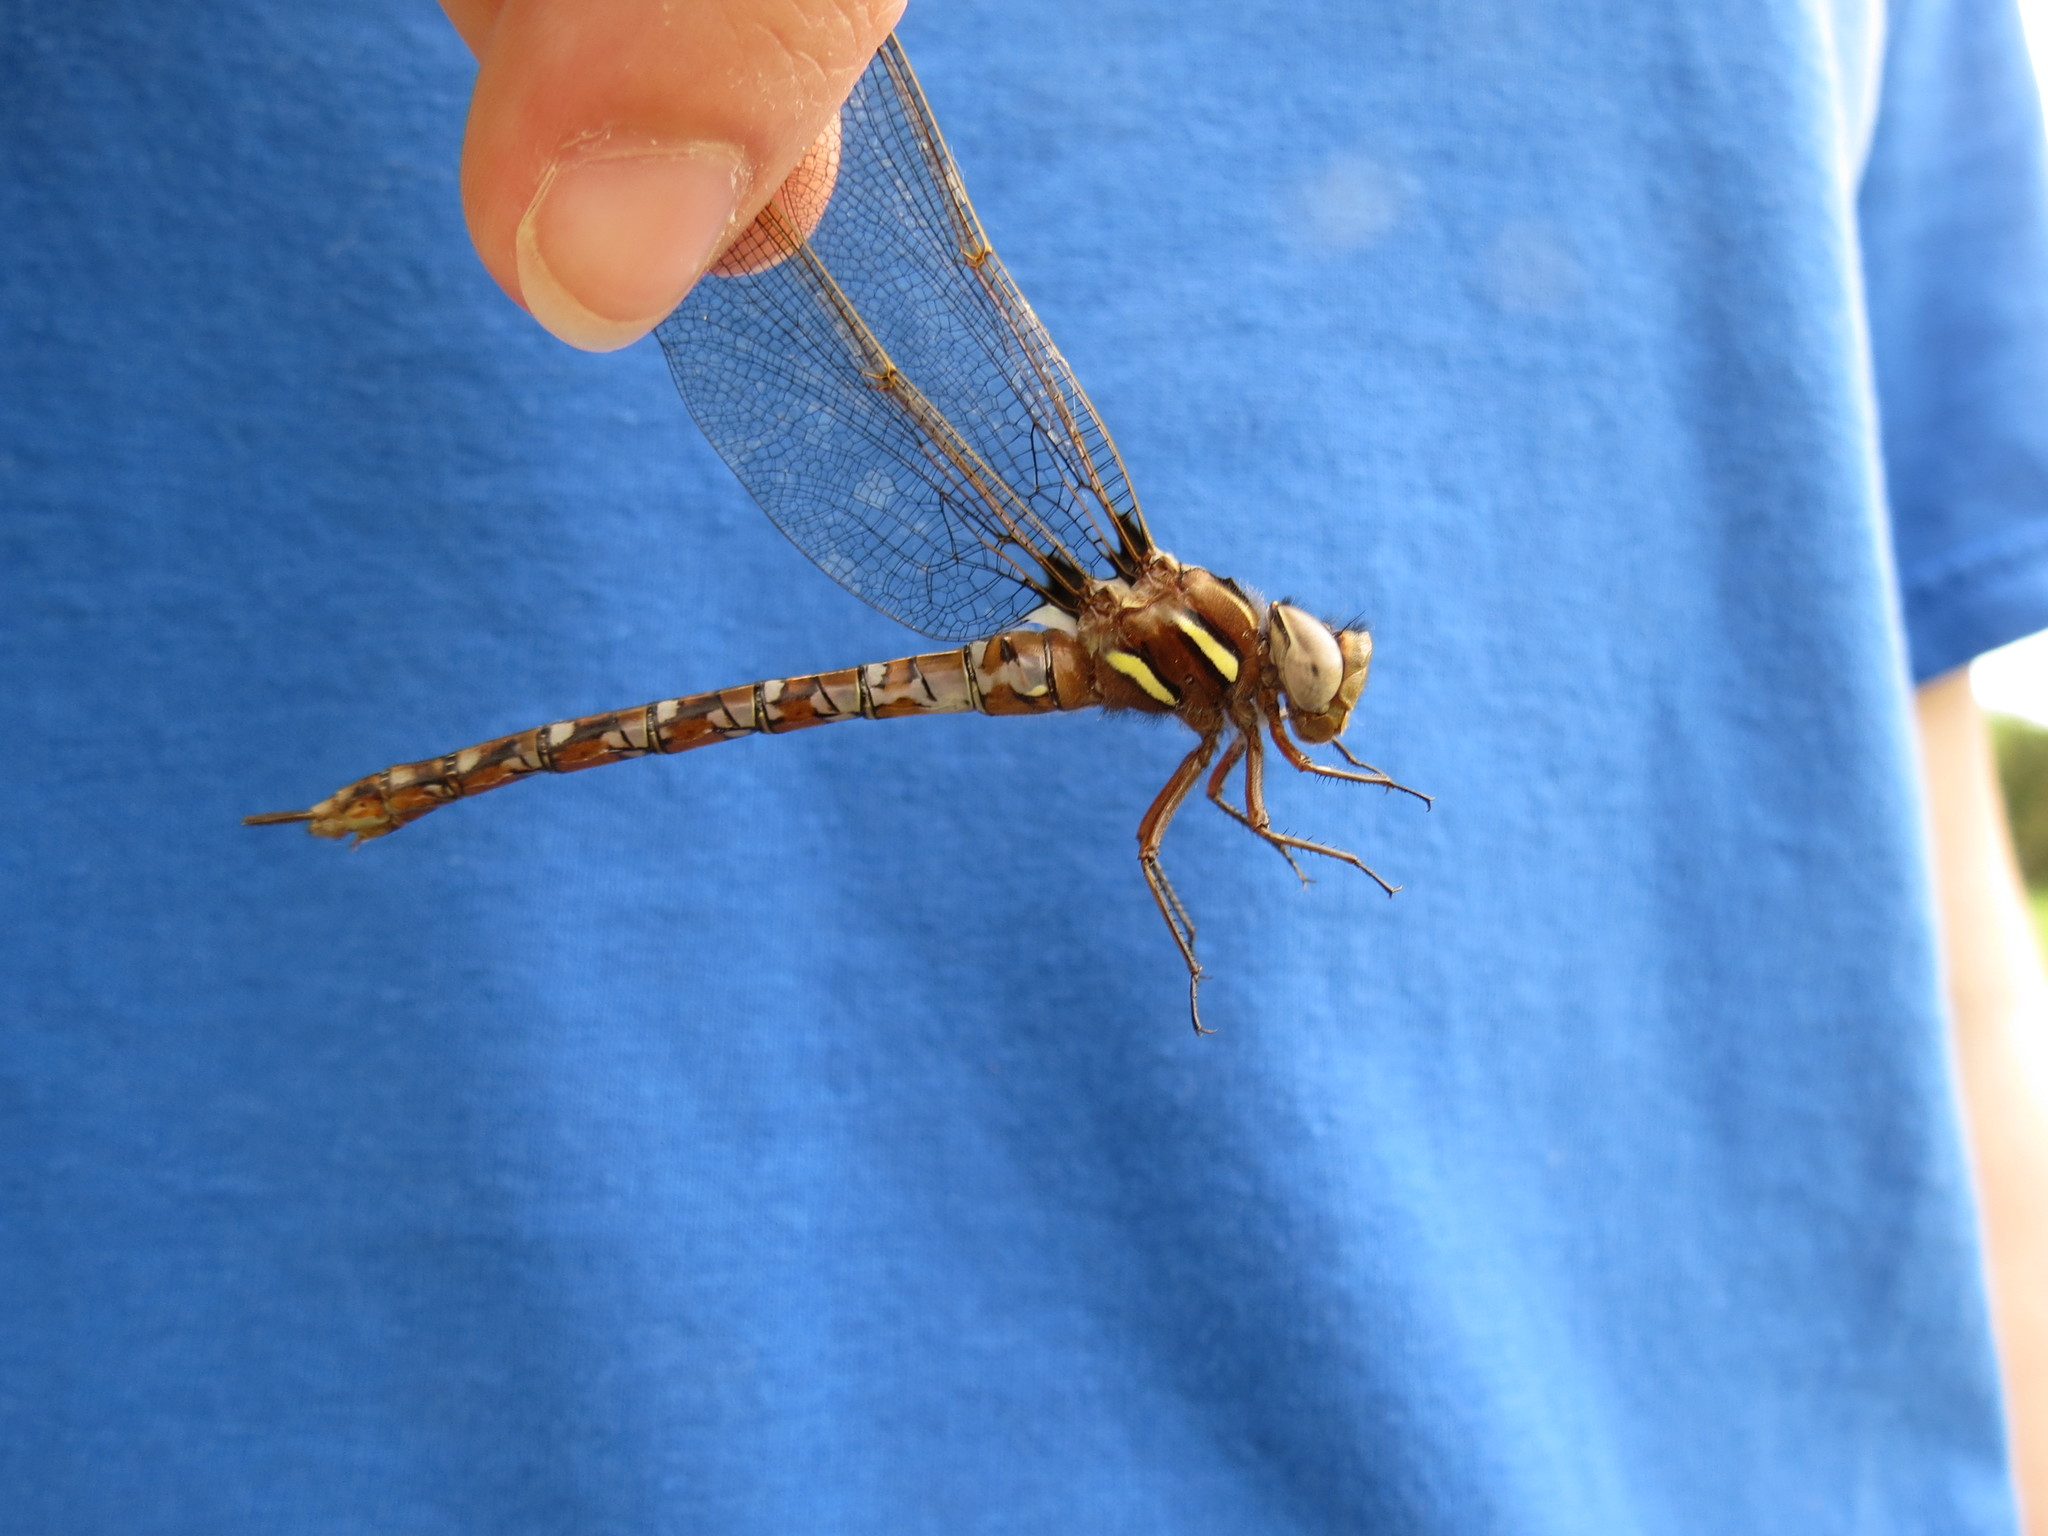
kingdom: Animalia
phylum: Arthropoda
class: Insecta
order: Odonata
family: Aeshnidae
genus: Basiaeschna
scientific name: Basiaeschna janata
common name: Springtime darner
